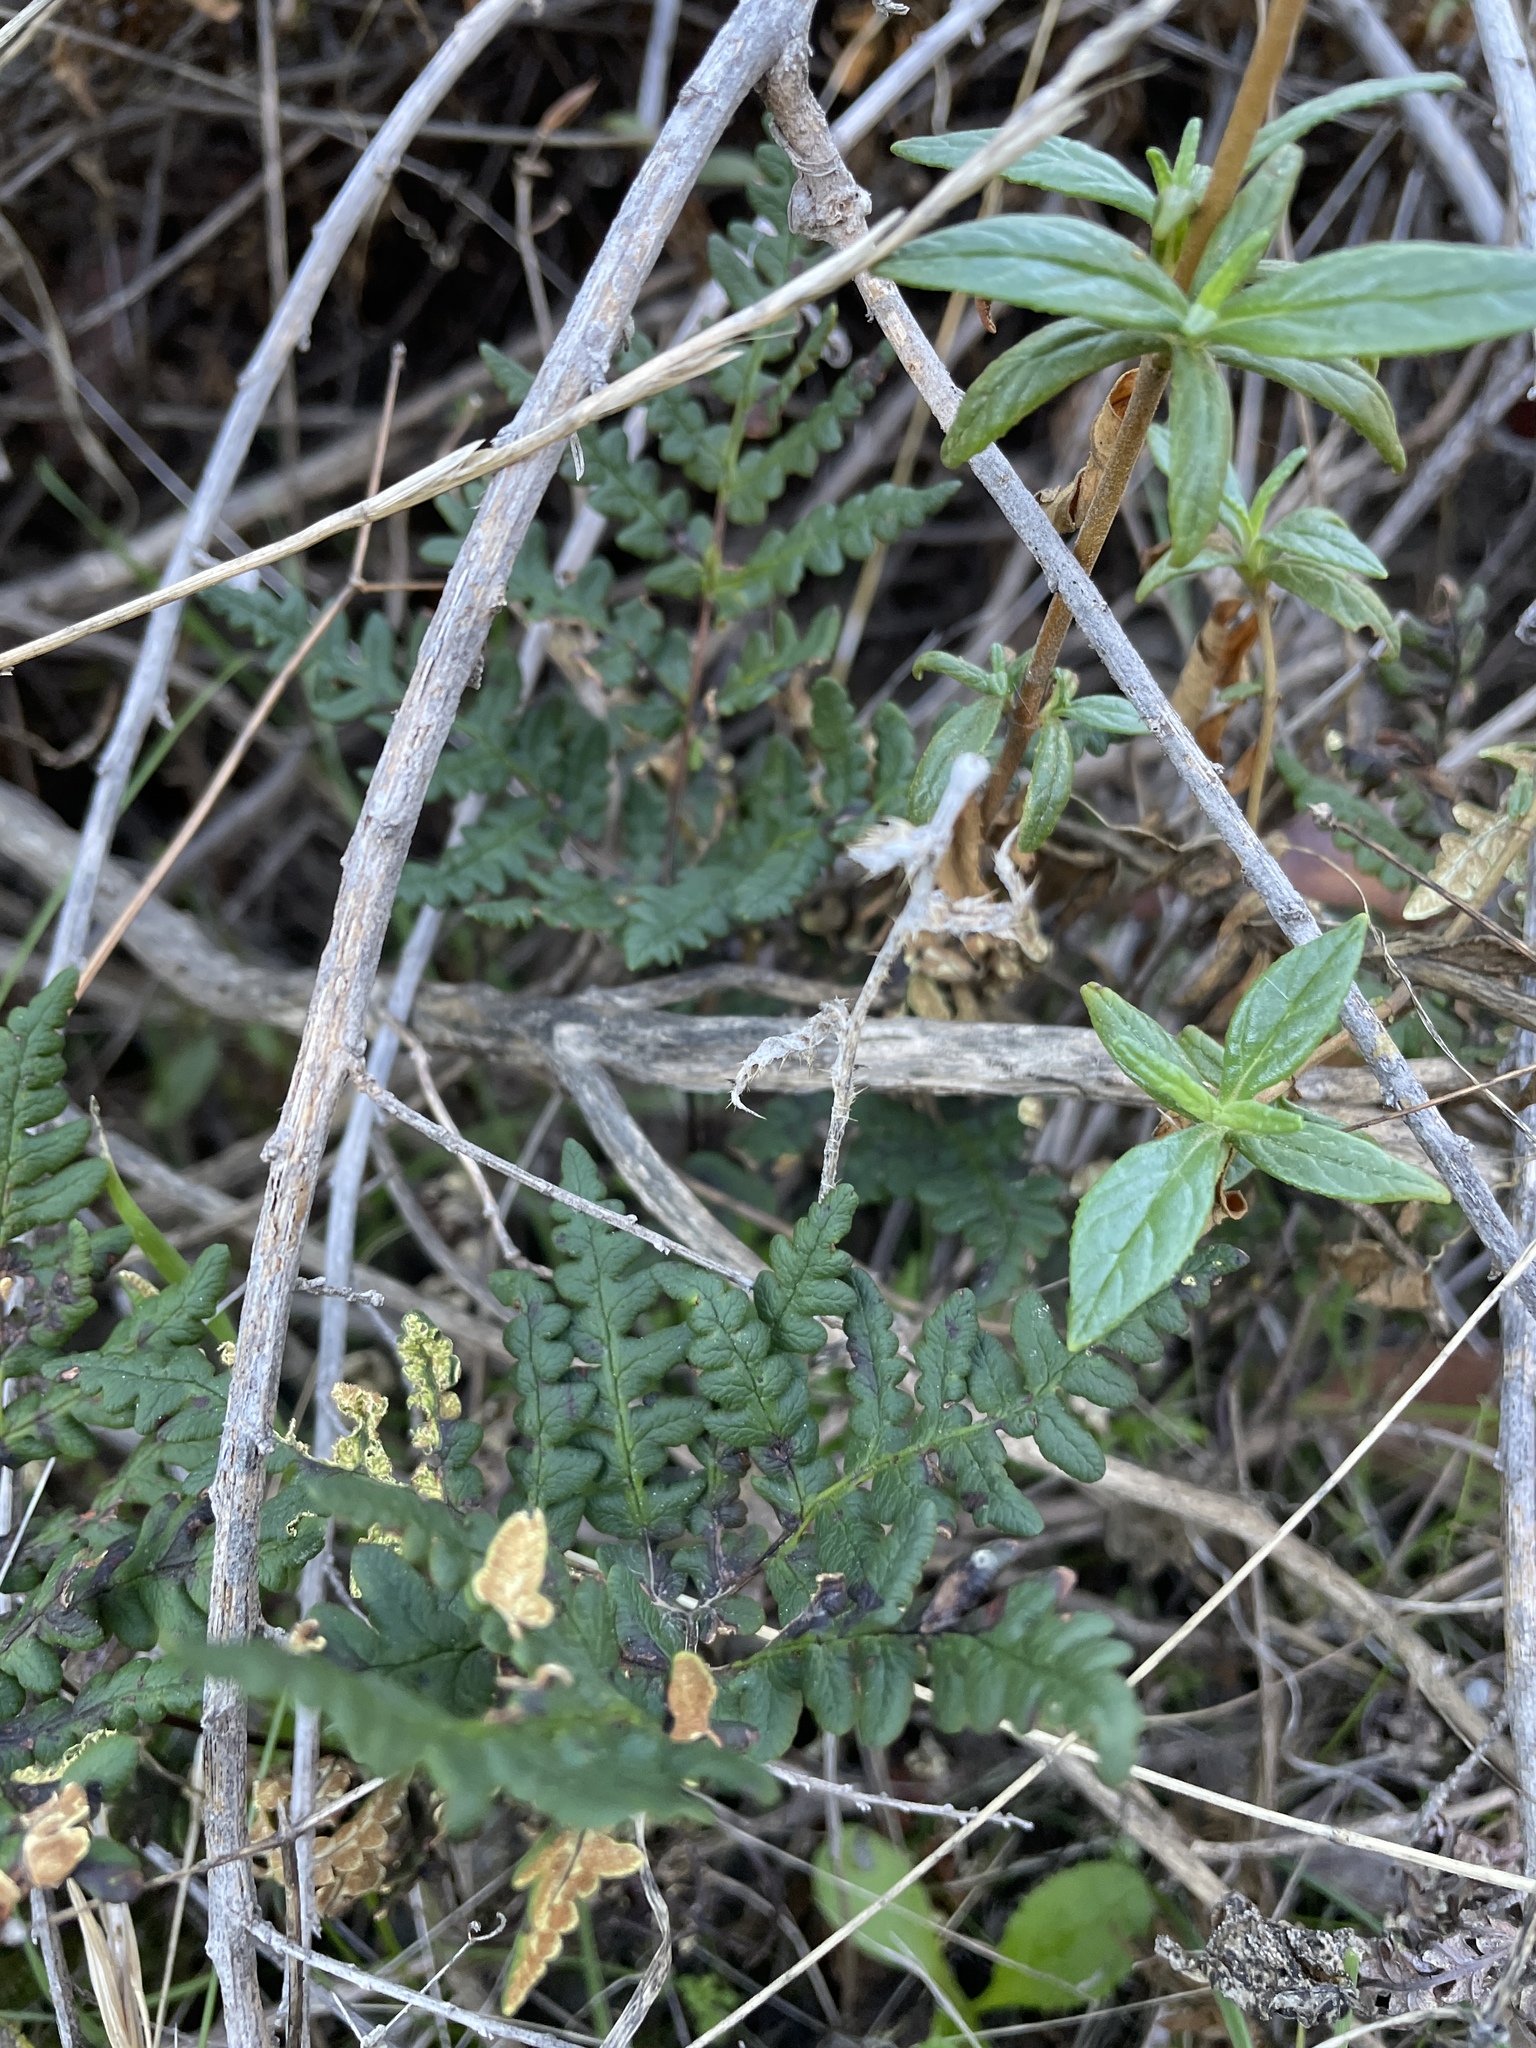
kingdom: Plantae
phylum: Tracheophyta
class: Polypodiopsida
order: Polypodiales
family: Pteridaceae
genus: Pentagramma
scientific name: Pentagramma triangularis
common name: Gold fern
